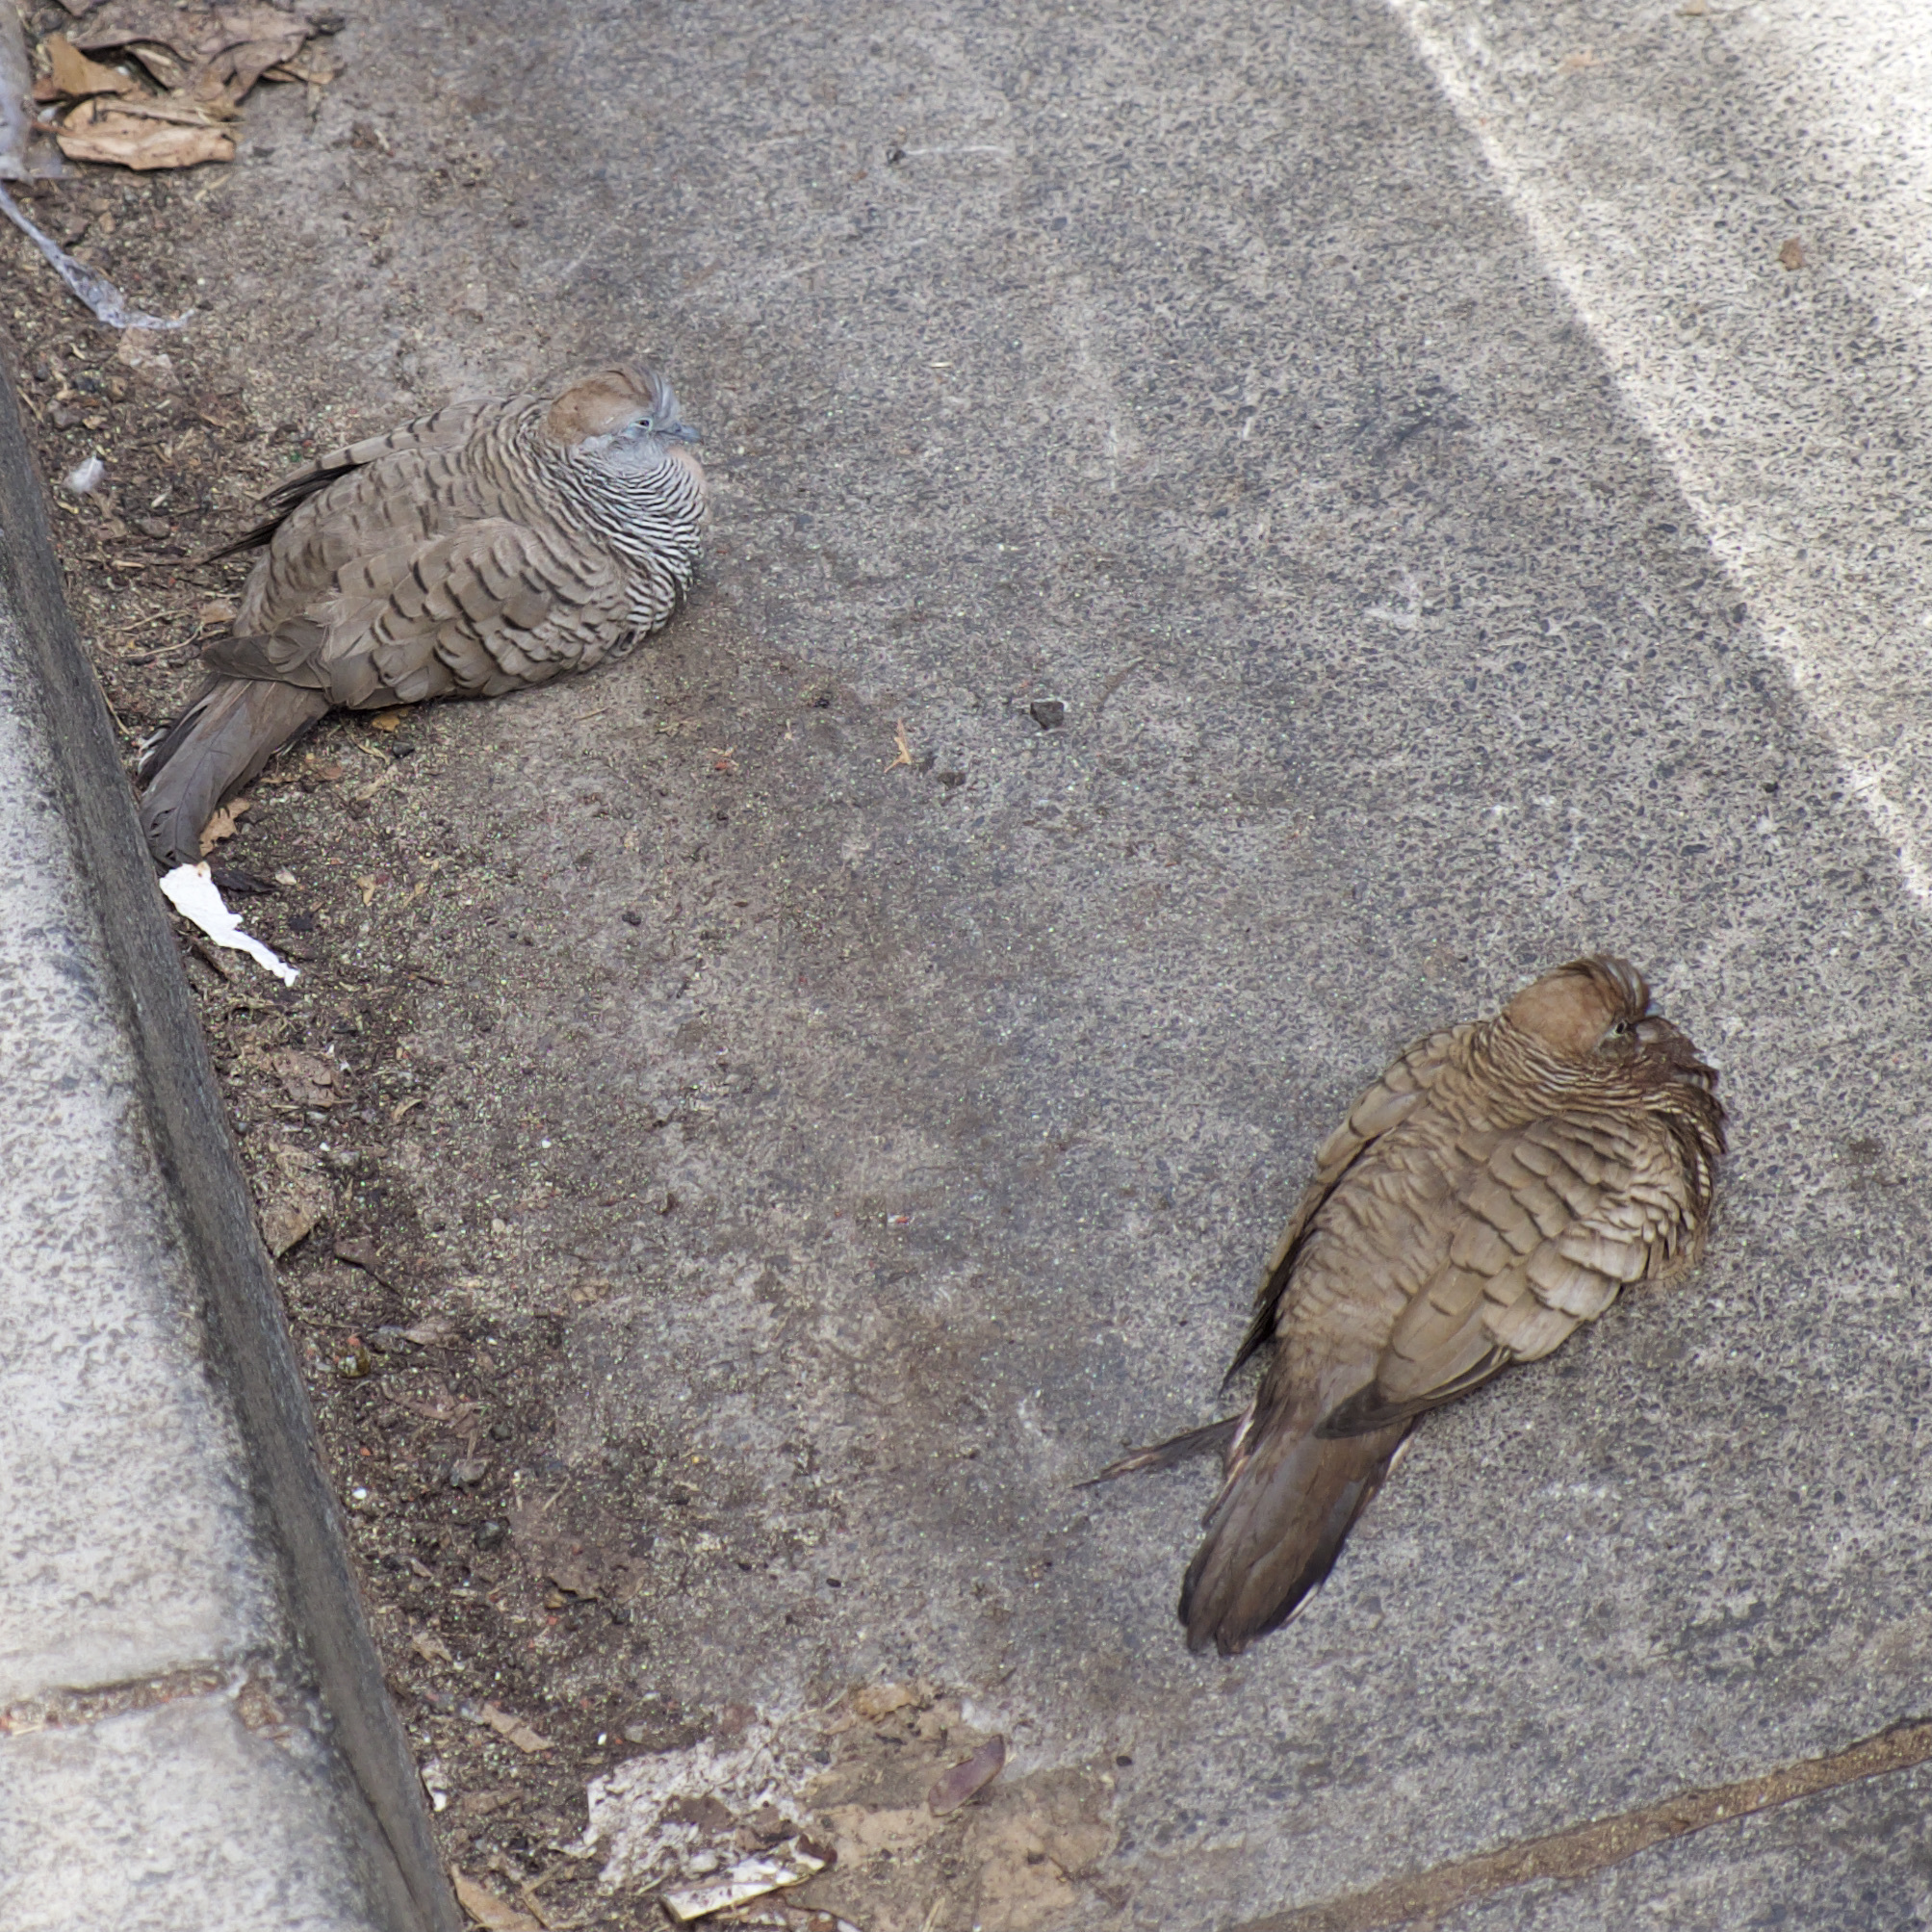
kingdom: Animalia
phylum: Chordata
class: Aves
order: Columbiformes
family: Columbidae
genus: Geopelia
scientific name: Geopelia striata
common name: Zebra dove
